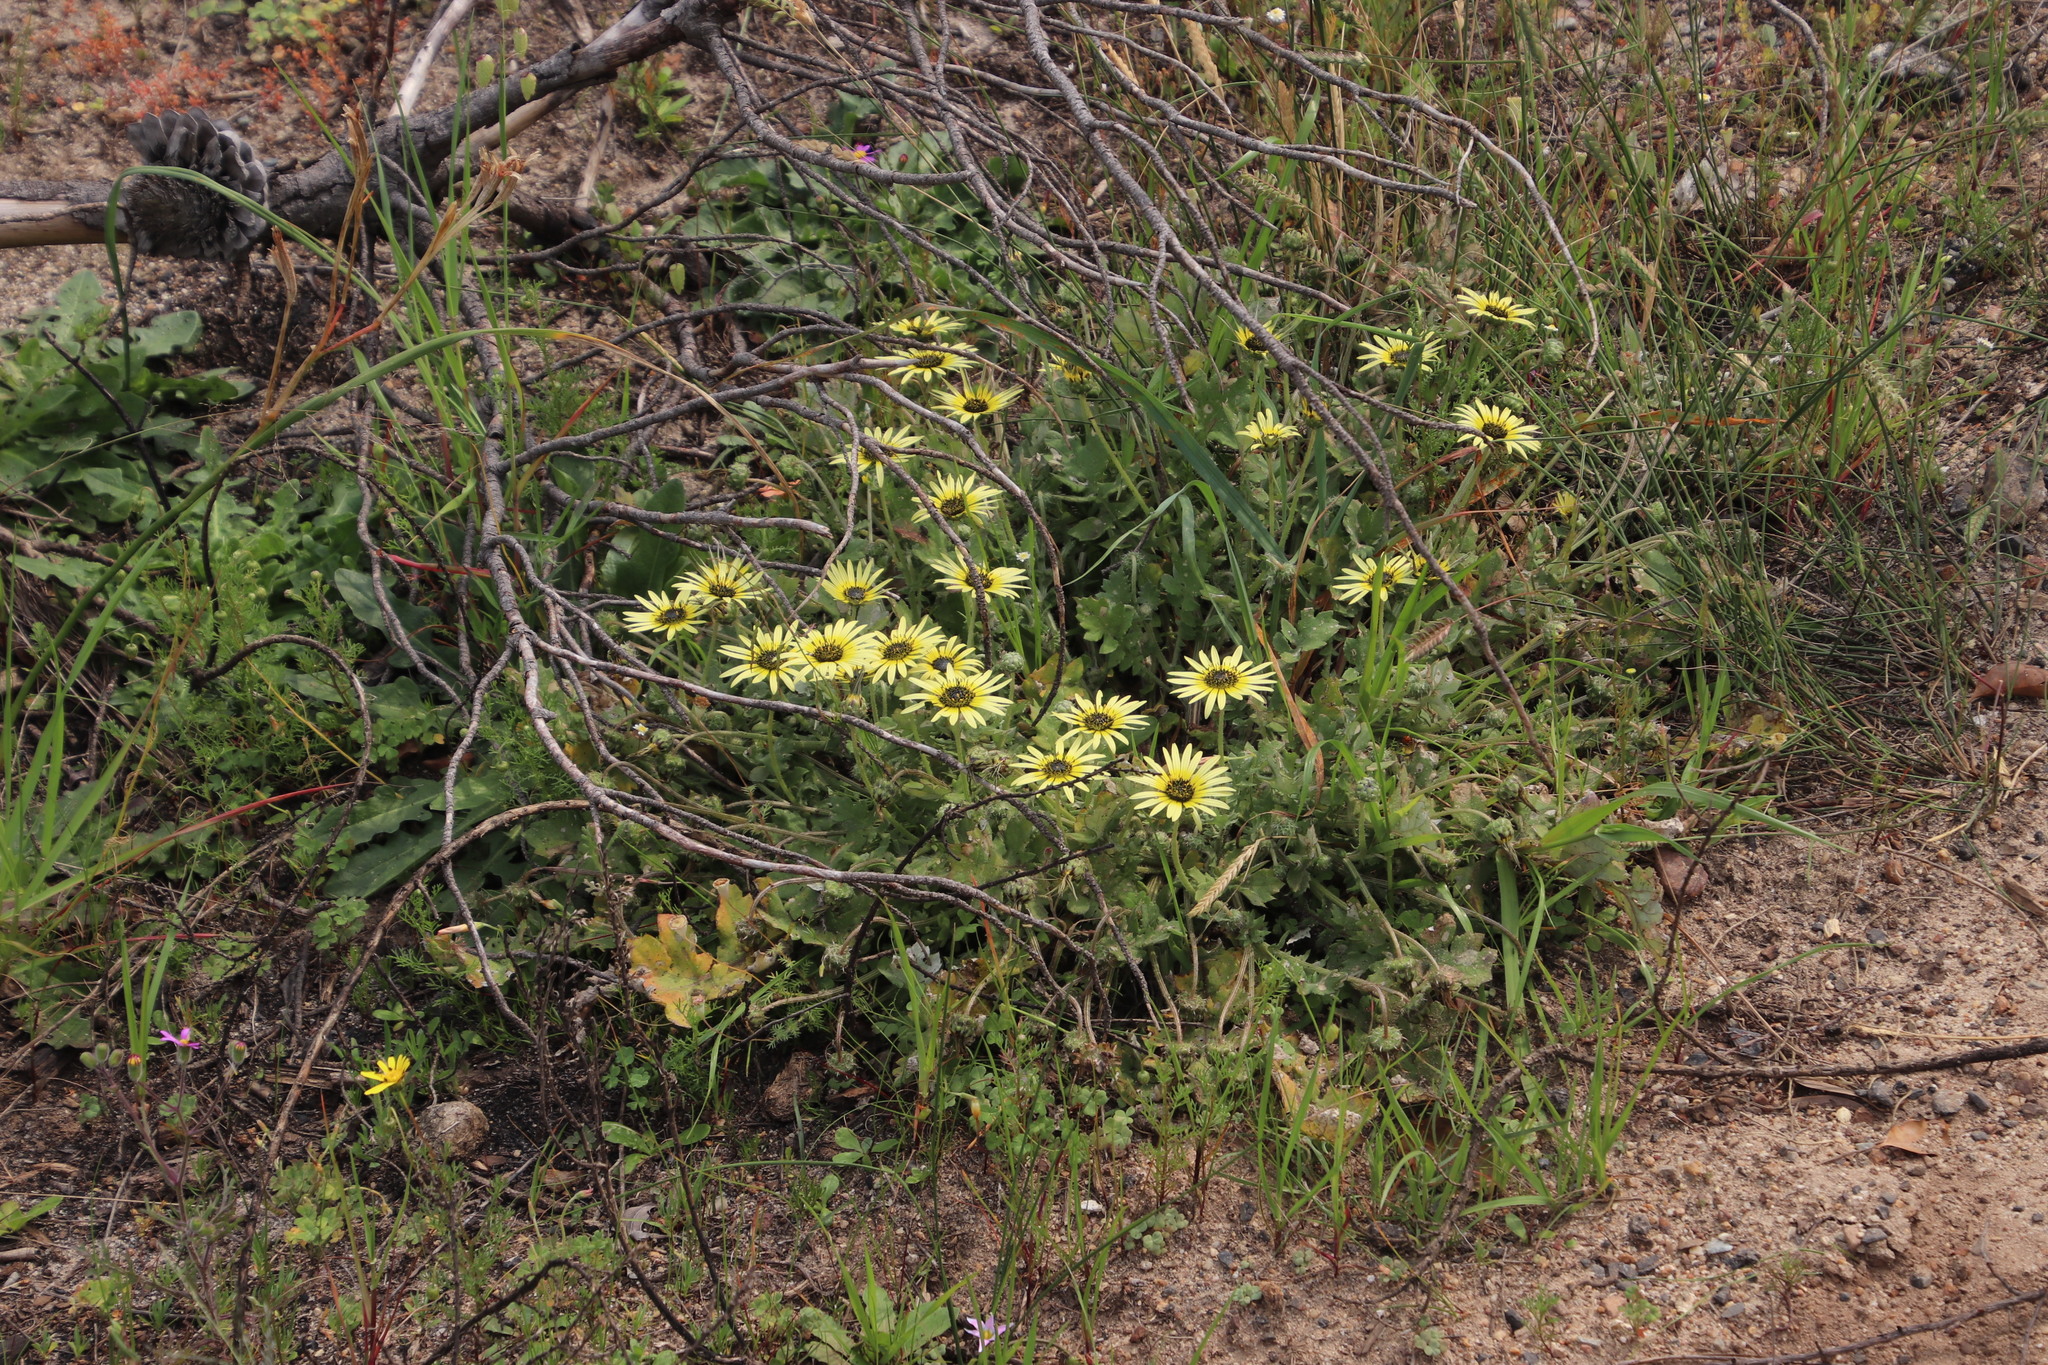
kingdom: Plantae
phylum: Tracheophyta
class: Magnoliopsida
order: Asterales
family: Asteraceae
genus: Arctotheca
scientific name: Arctotheca calendula
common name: Capeweed
